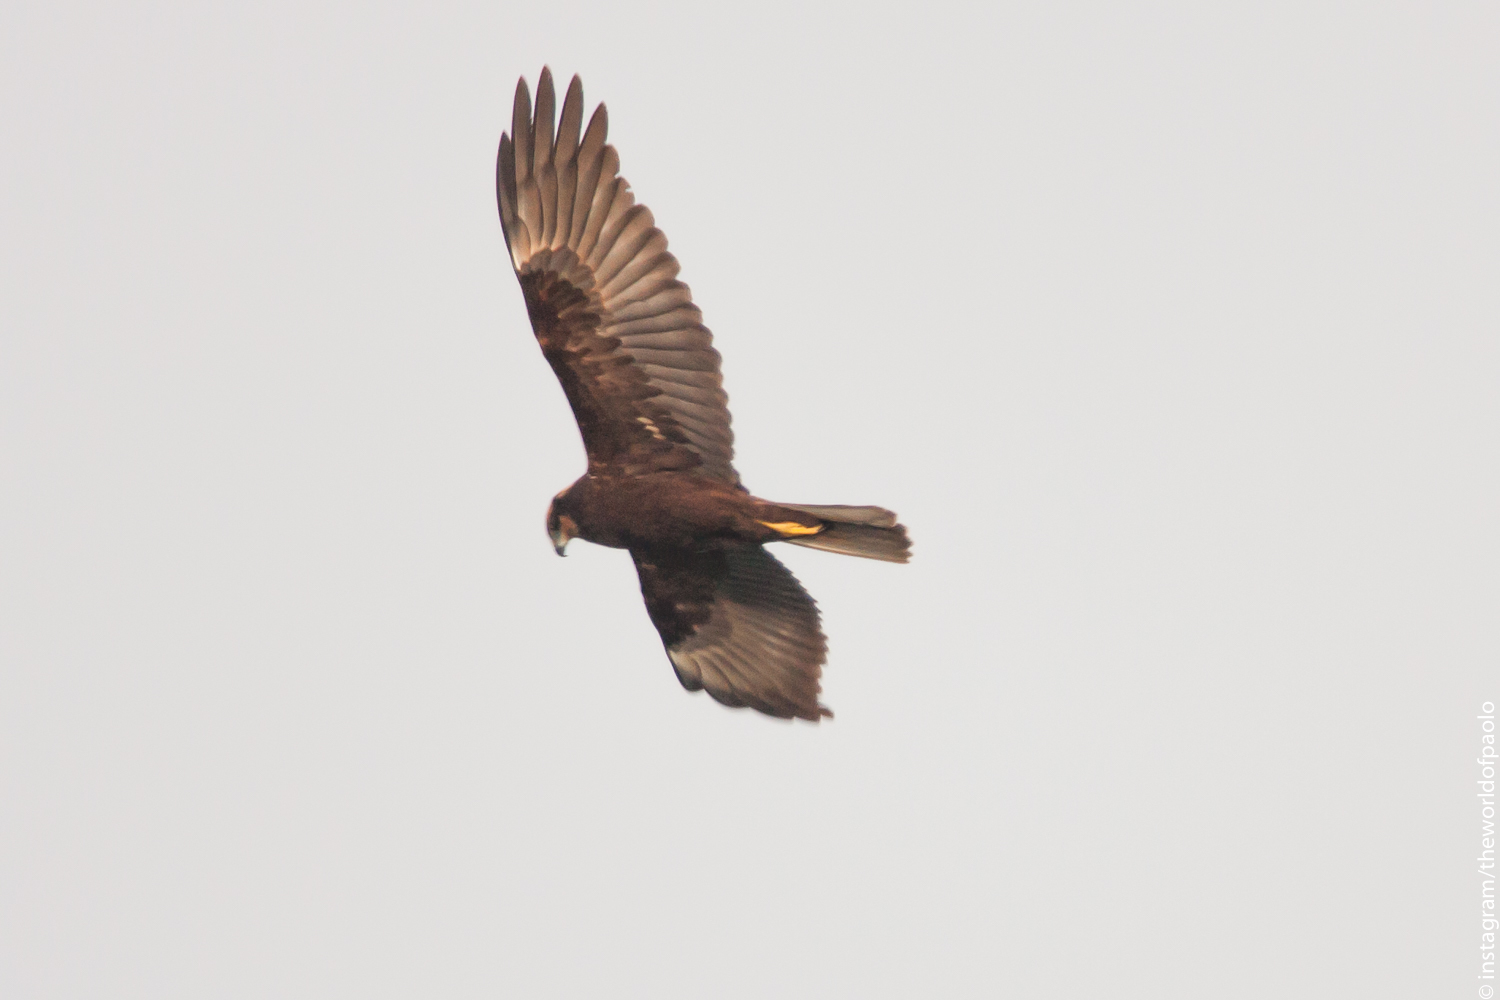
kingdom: Animalia
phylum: Chordata
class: Aves
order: Accipitriformes
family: Accipitridae
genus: Circus
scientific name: Circus aeruginosus
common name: Western marsh harrier
